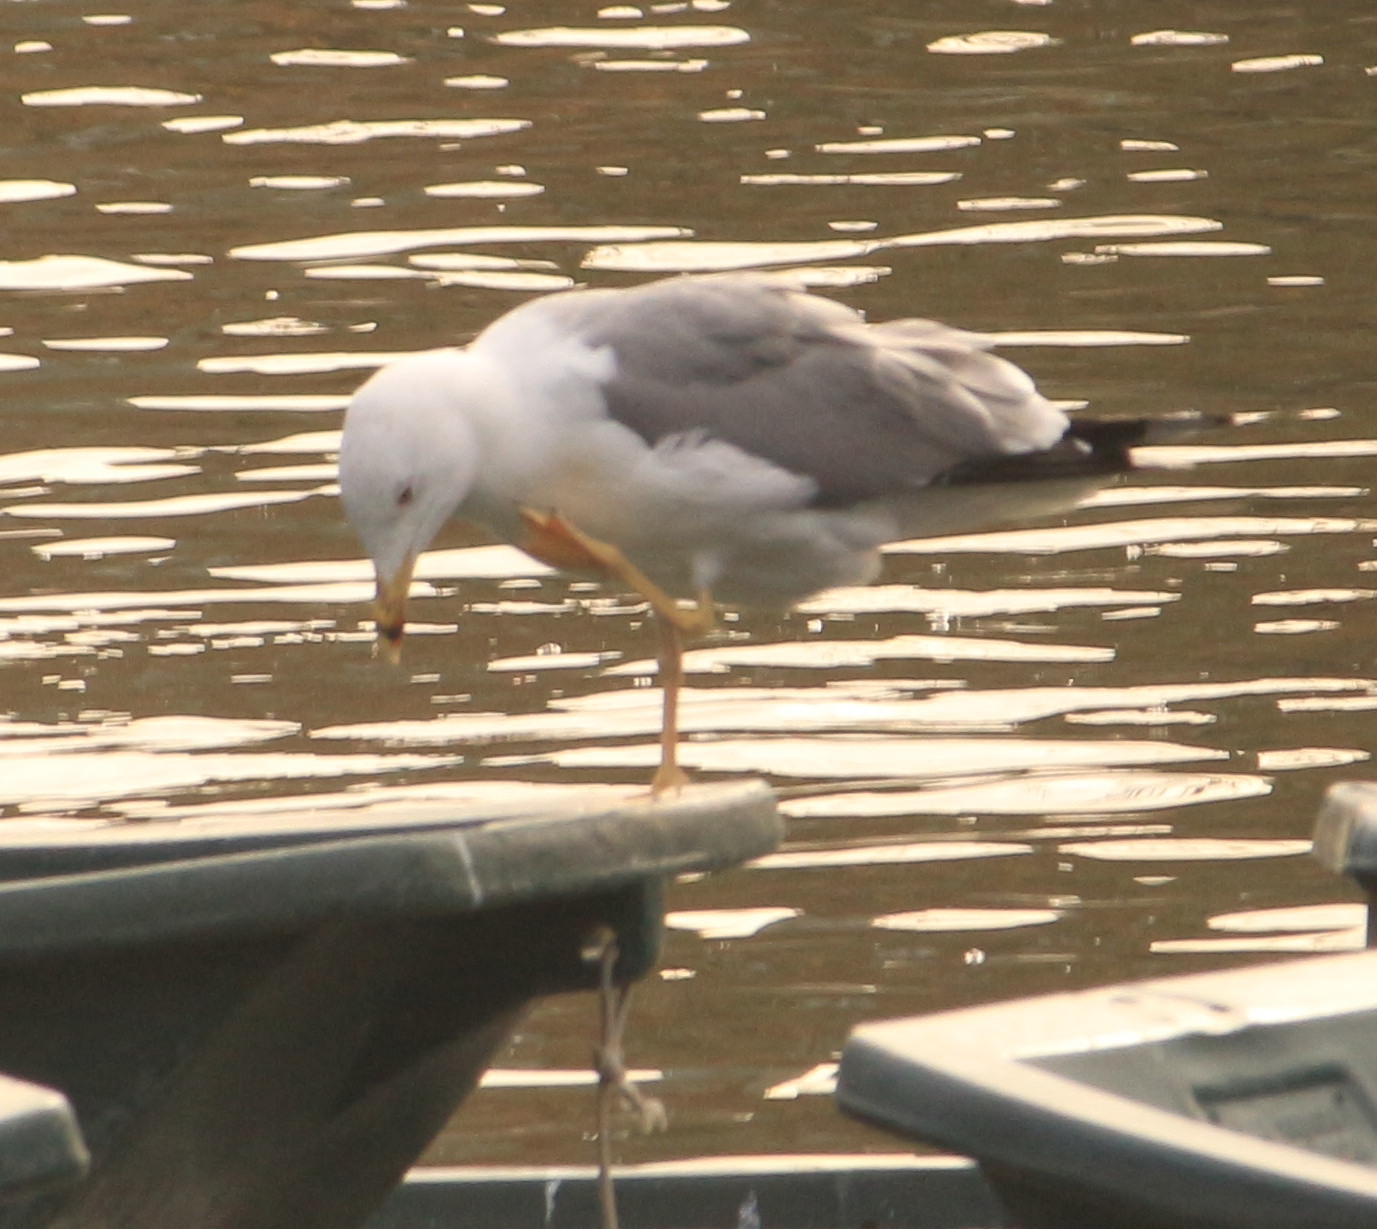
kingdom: Animalia
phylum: Chordata
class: Aves
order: Charadriiformes
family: Laridae
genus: Larus
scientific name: Larus michahellis
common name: Yellow-legged gull
